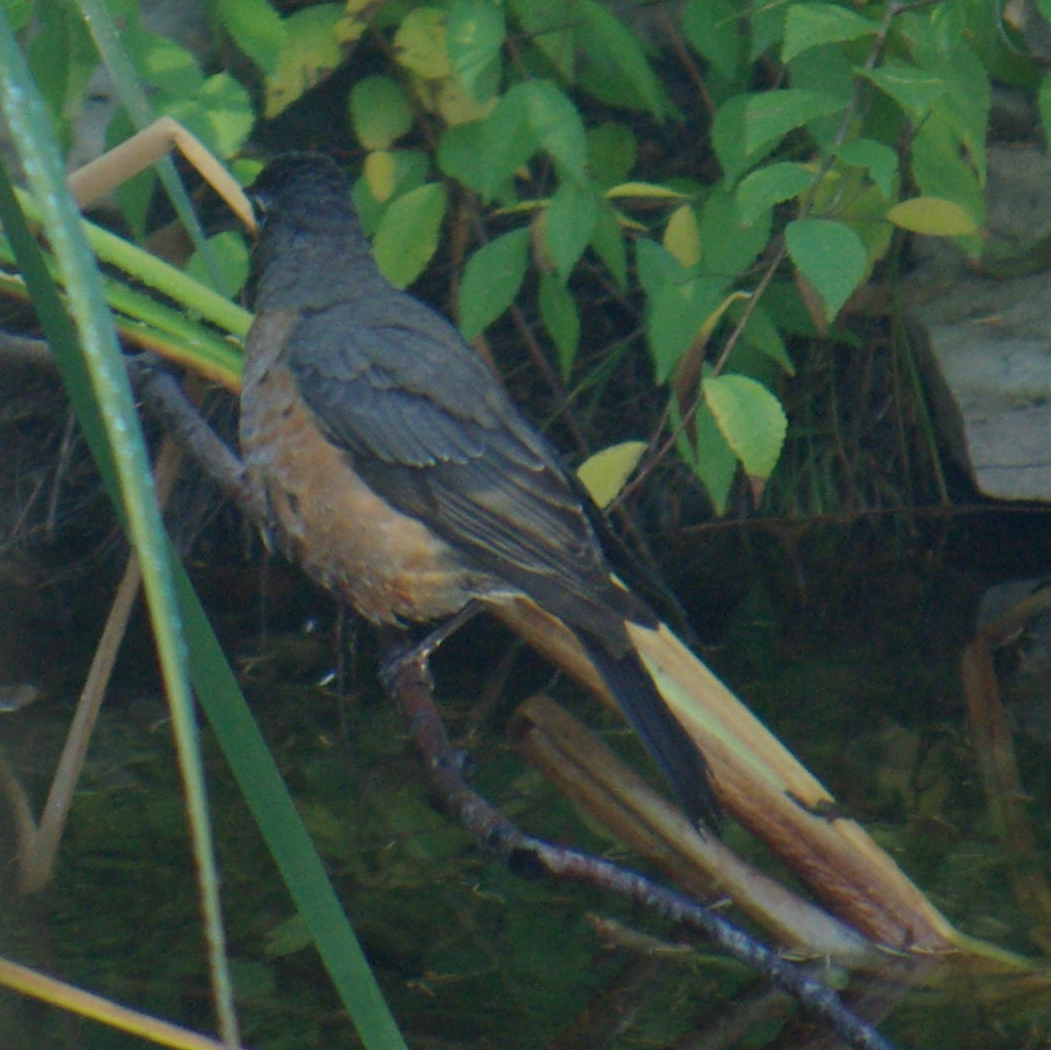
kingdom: Animalia
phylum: Chordata
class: Aves
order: Passeriformes
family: Turdidae
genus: Turdus
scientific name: Turdus migratorius
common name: American robin
